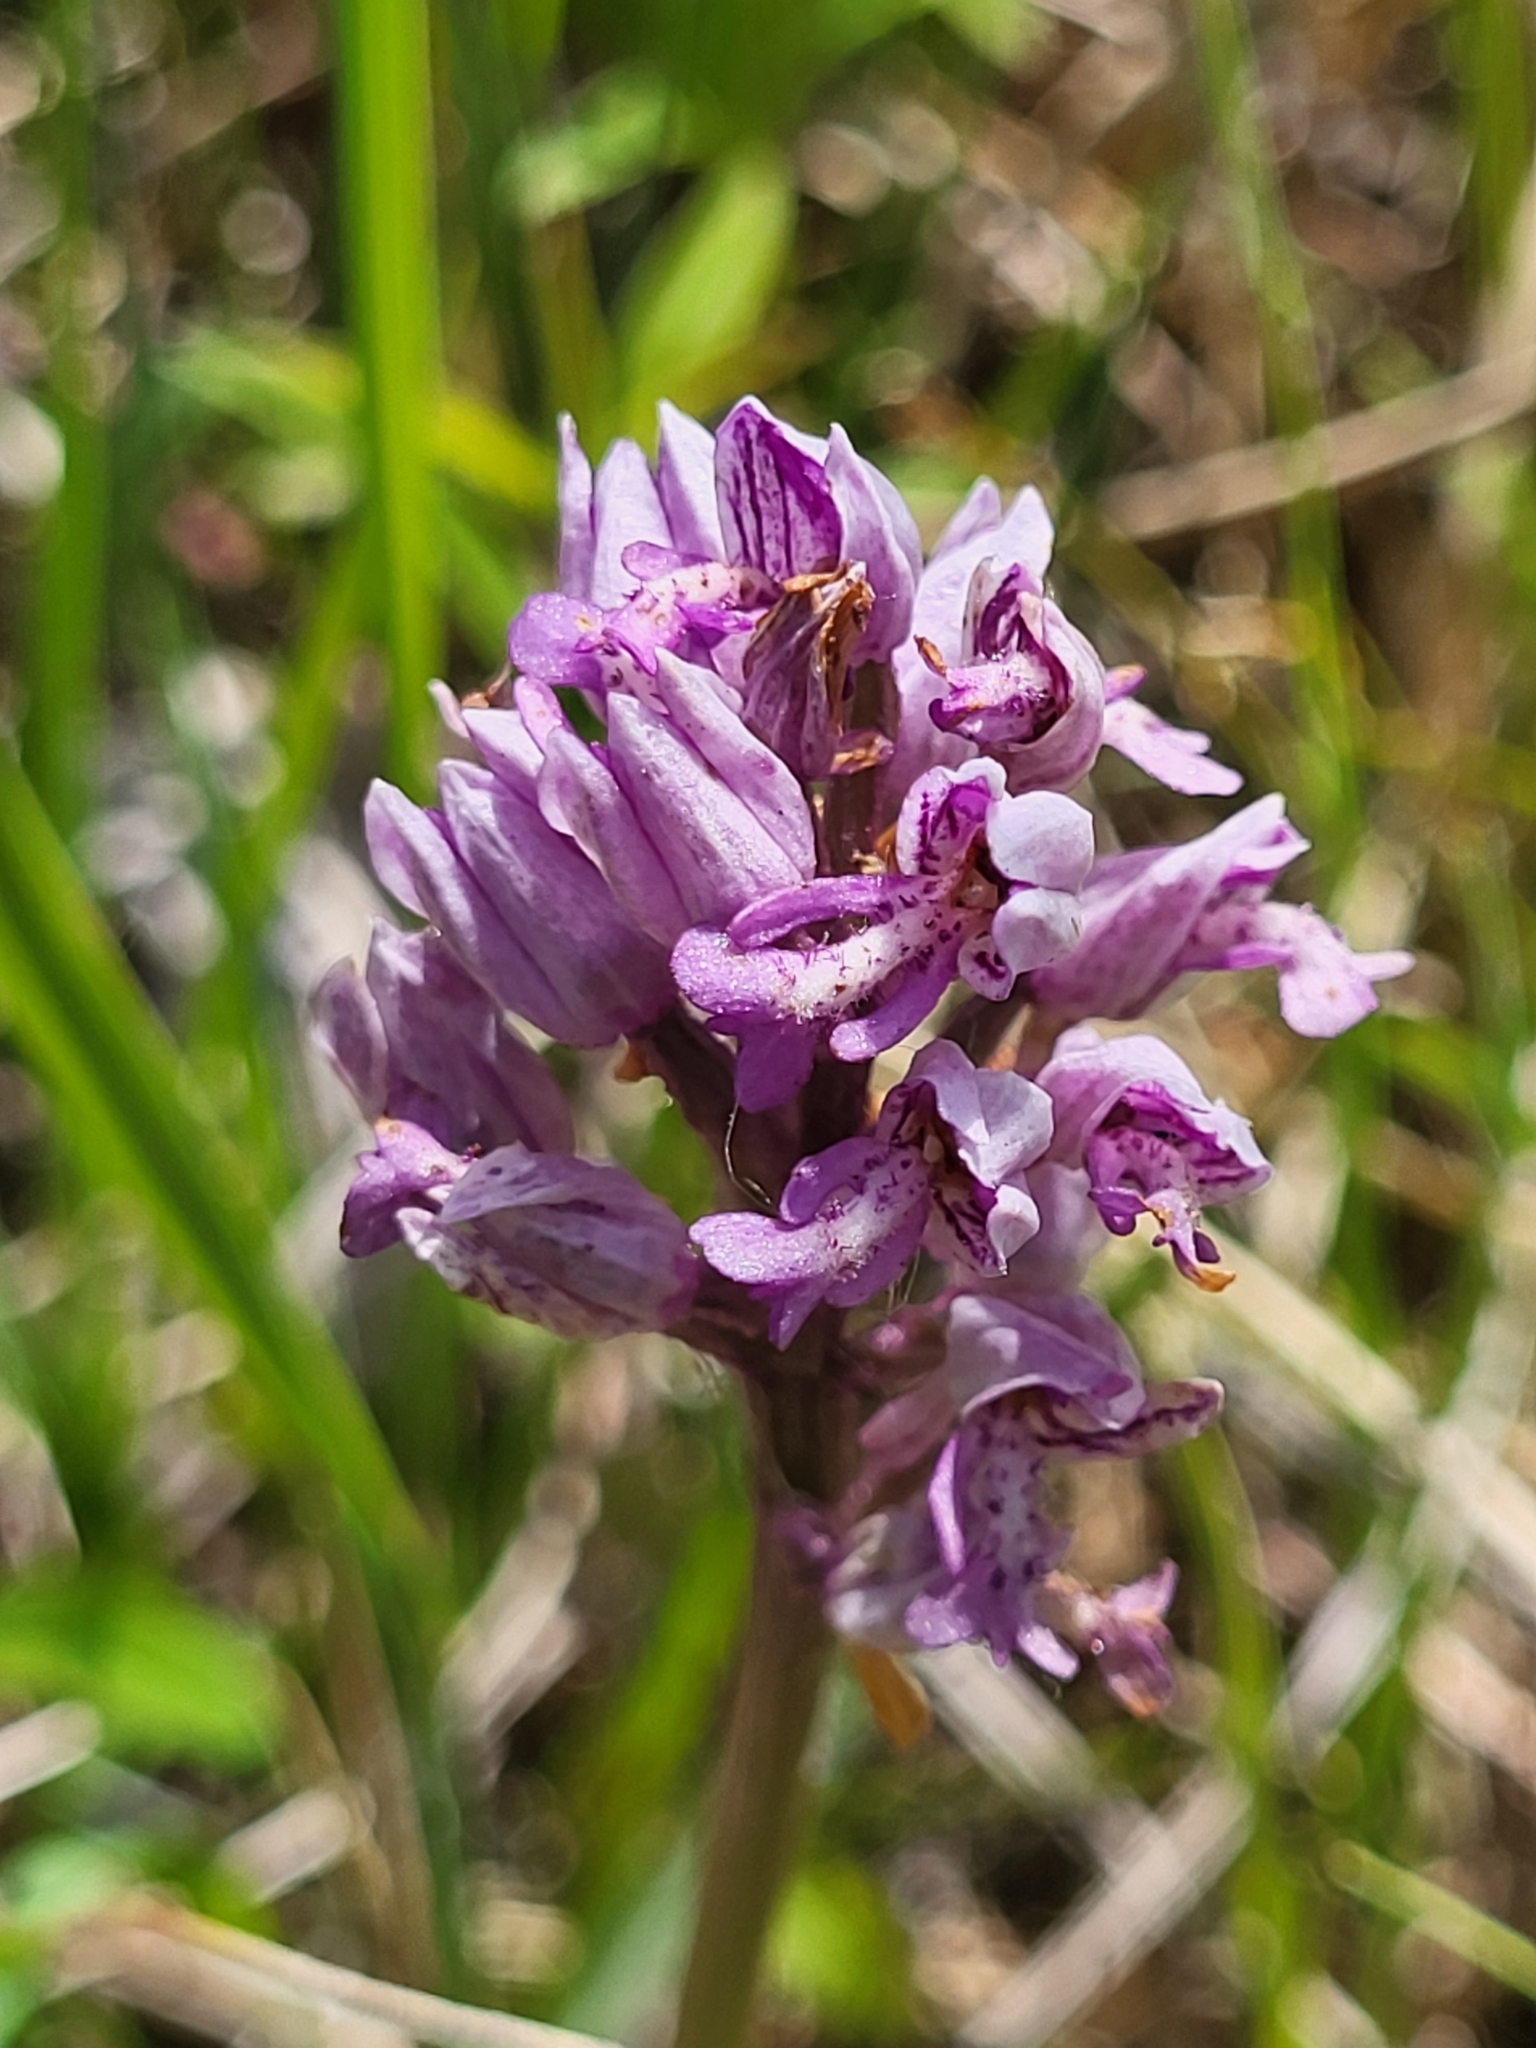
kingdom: Plantae
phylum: Tracheophyta
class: Liliopsida
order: Asparagales
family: Orchidaceae
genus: Orchis
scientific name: Orchis militaris
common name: Military orchid
